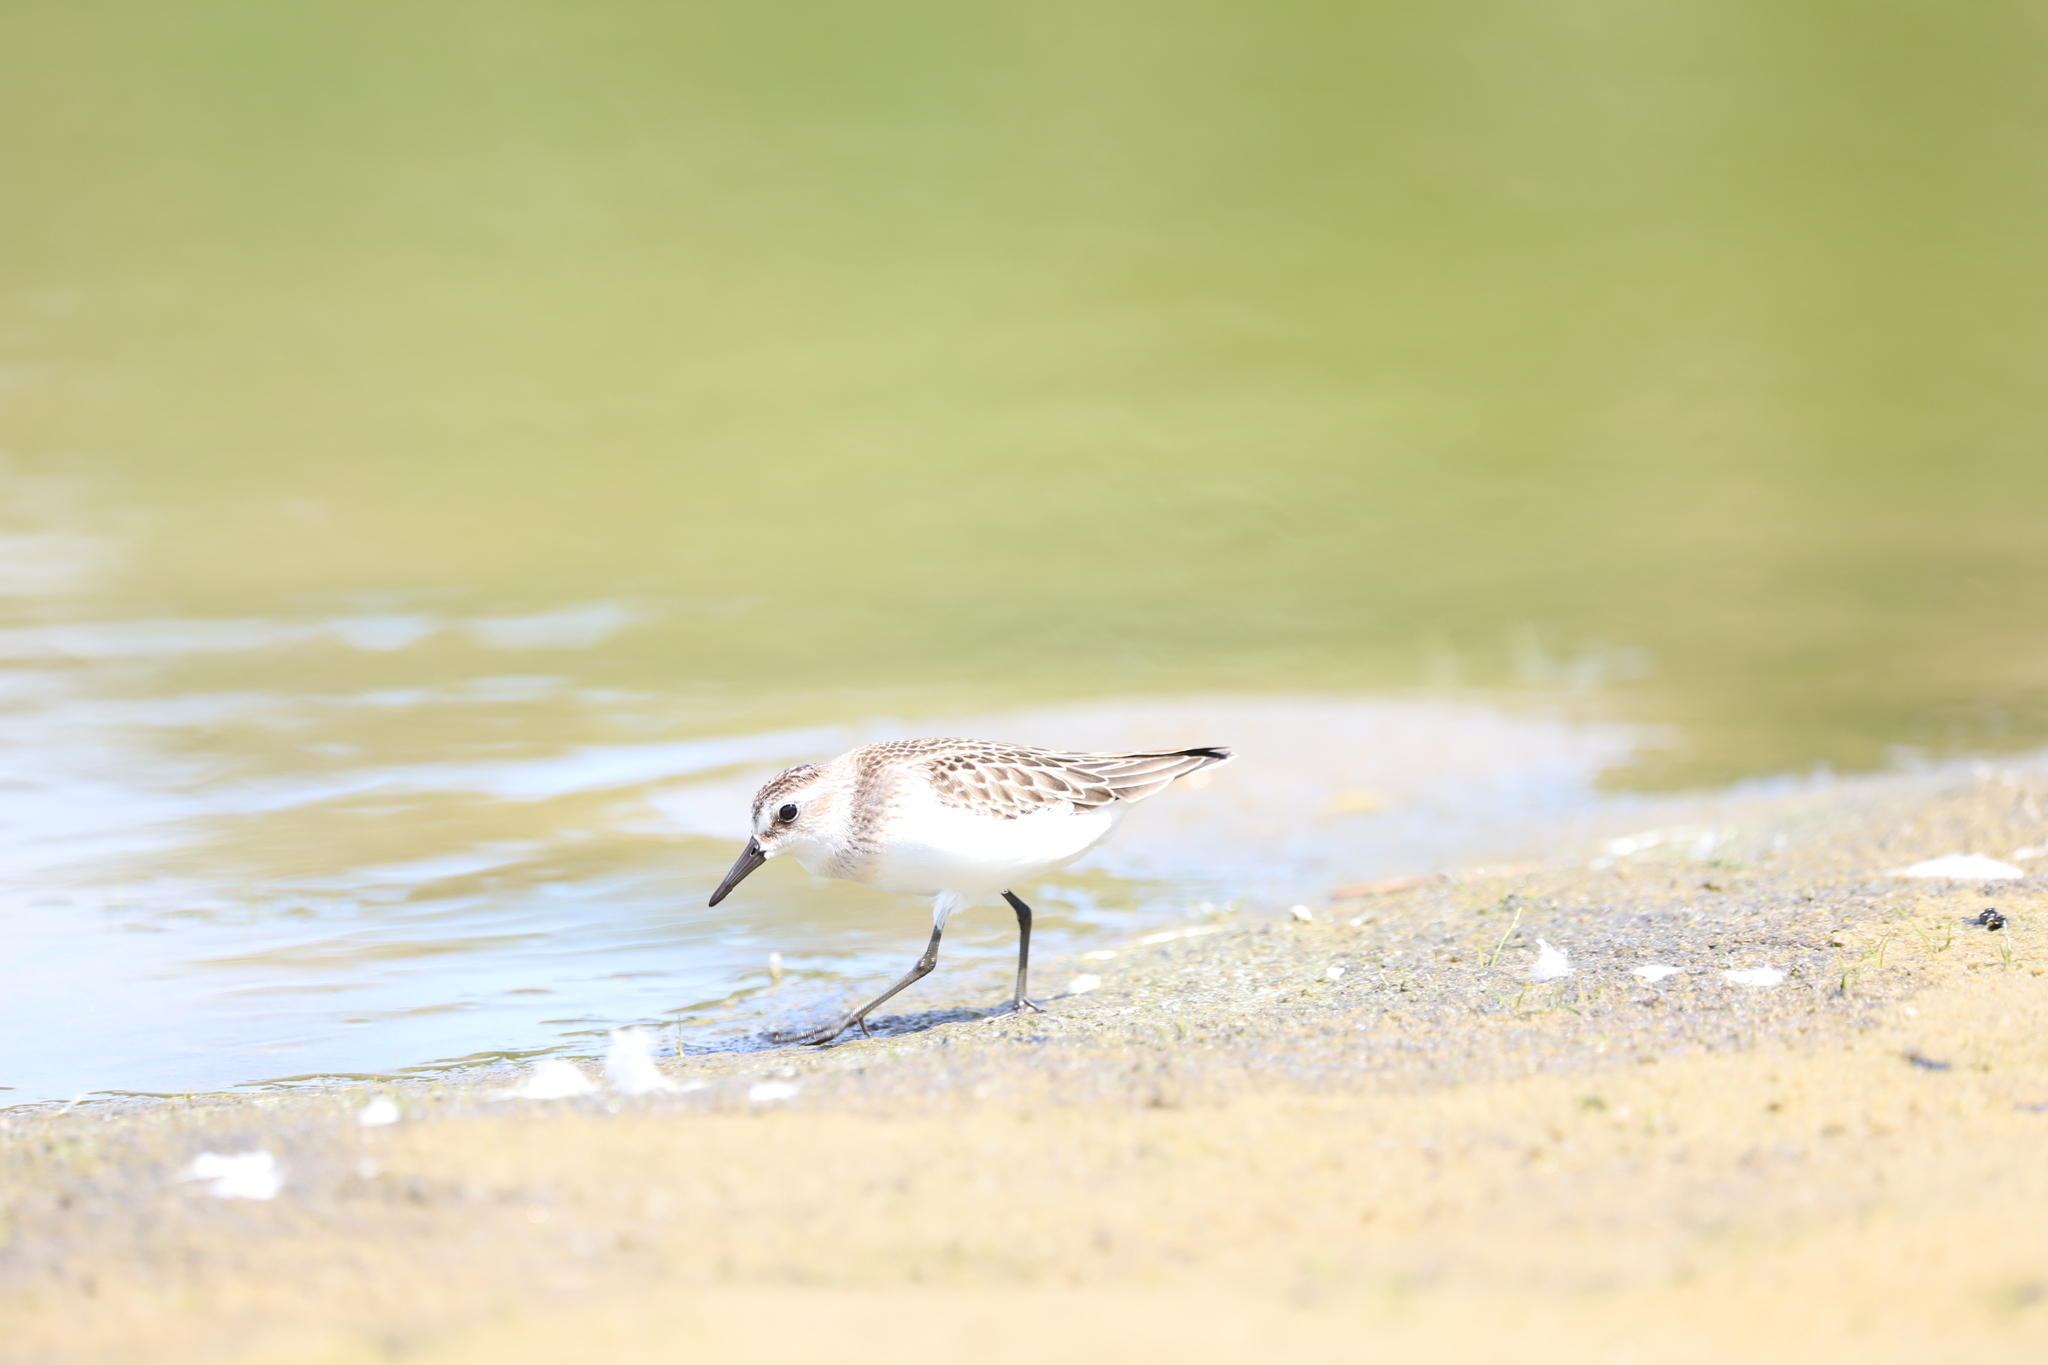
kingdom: Animalia
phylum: Chordata
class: Aves
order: Charadriiformes
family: Scolopacidae
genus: Calidris
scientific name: Calidris pusilla
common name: Semipalmated sandpiper
